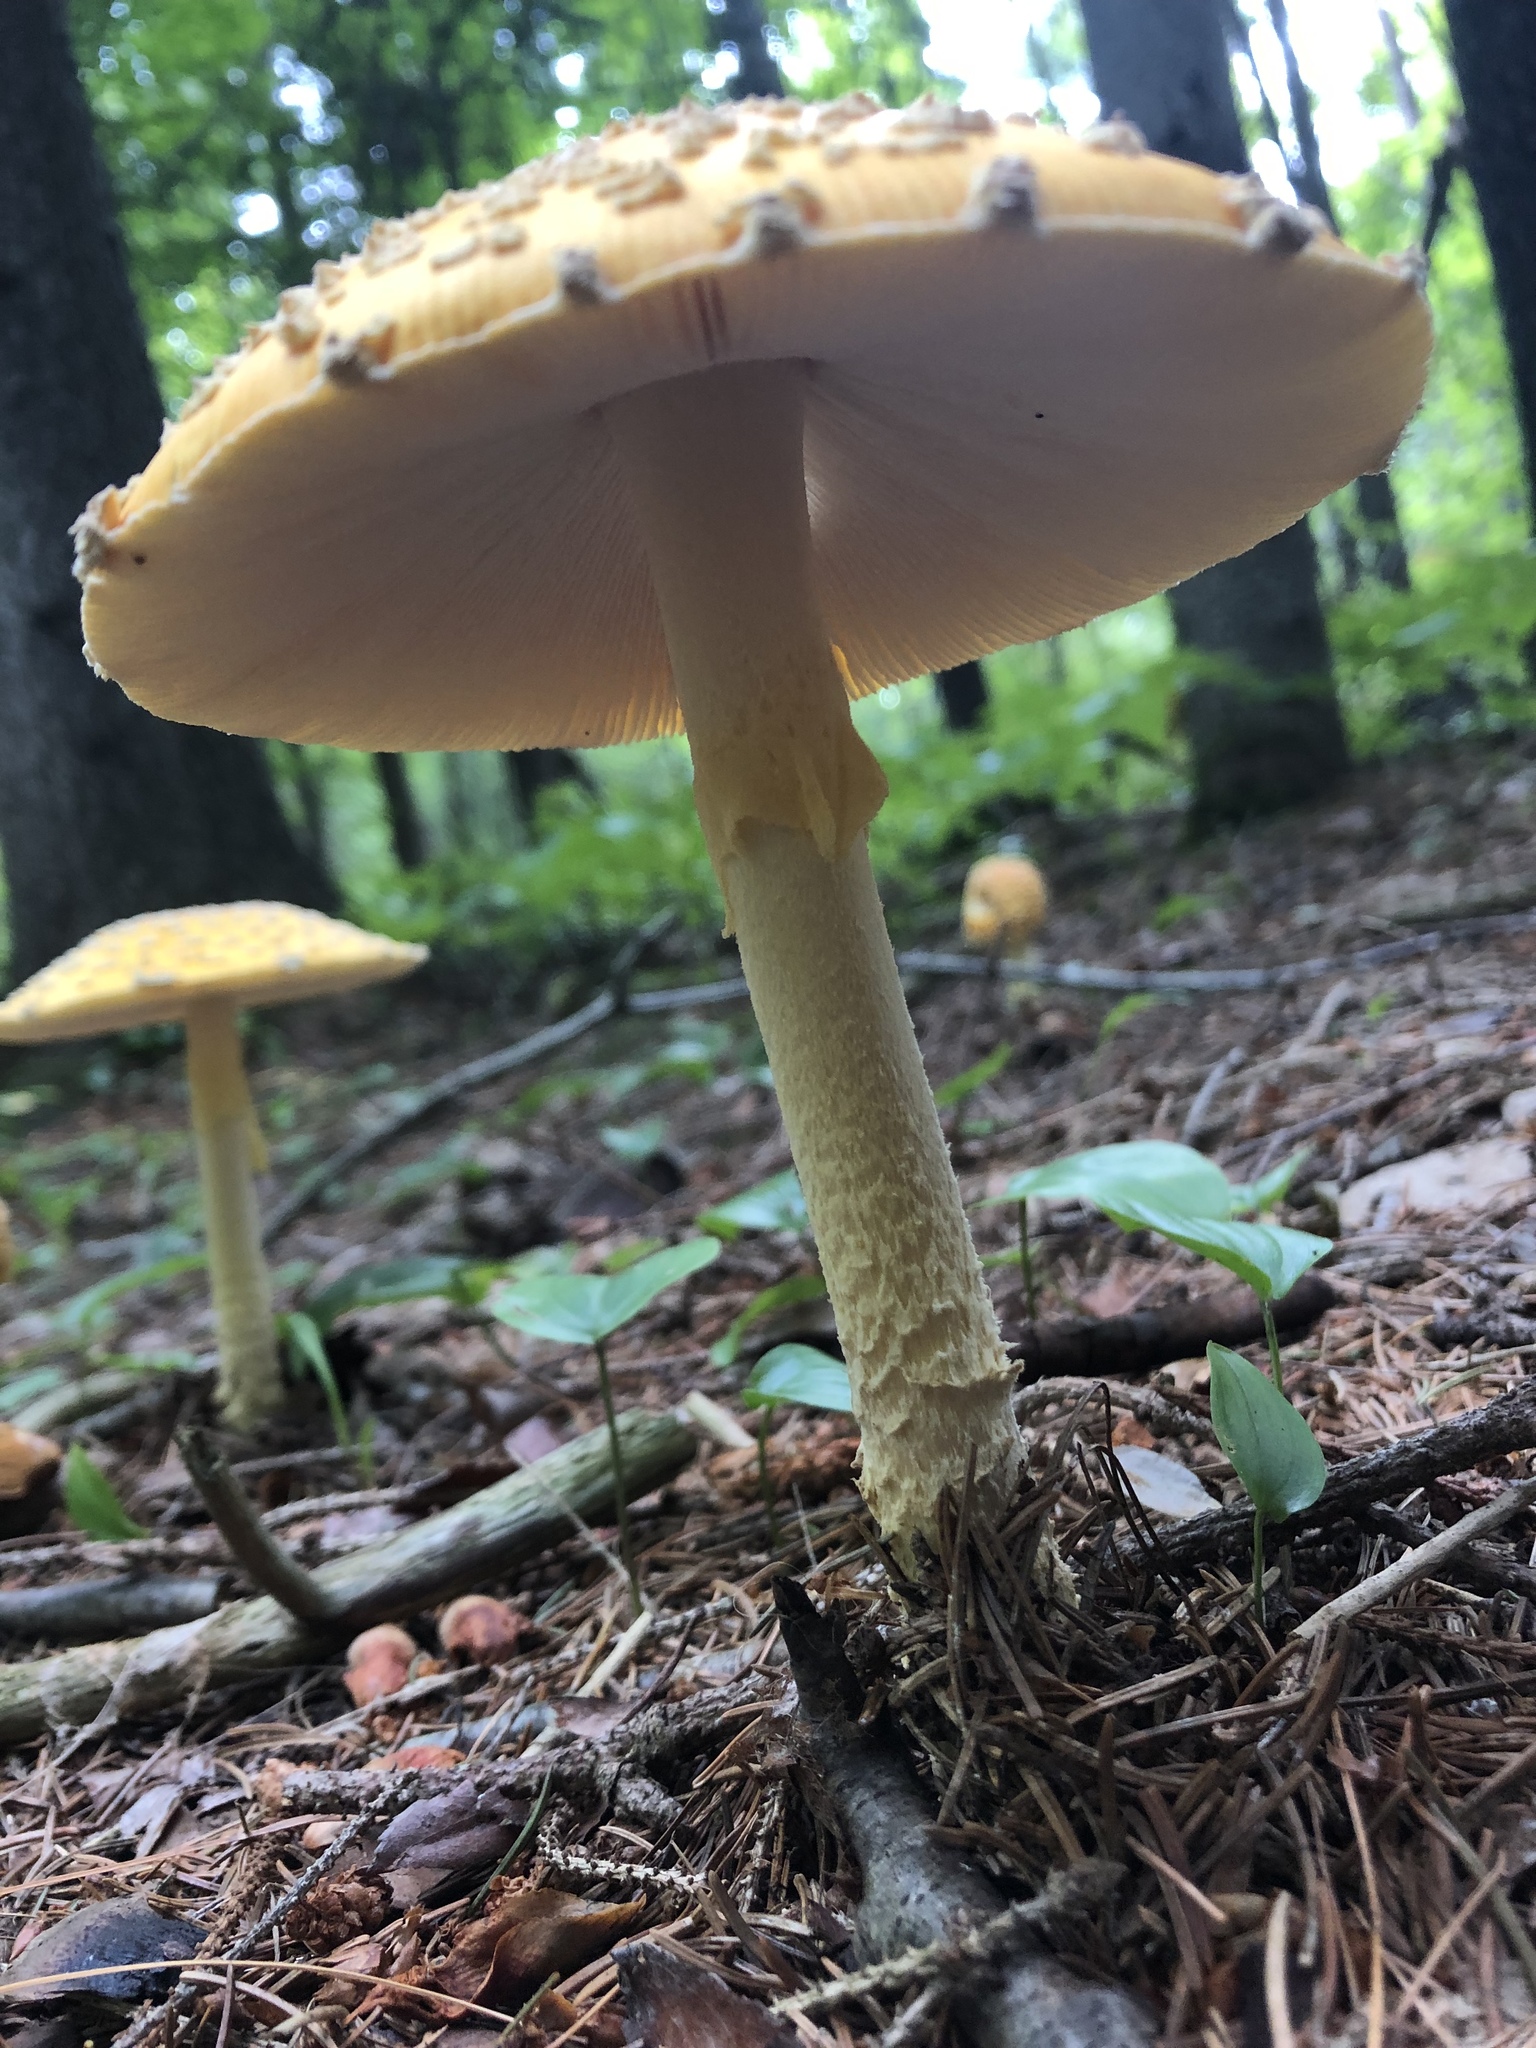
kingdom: Fungi
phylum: Basidiomycota
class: Agaricomycetes
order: Agaricales
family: Amanitaceae
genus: Amanita
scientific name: Amanita muscaria
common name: Fly agaric
